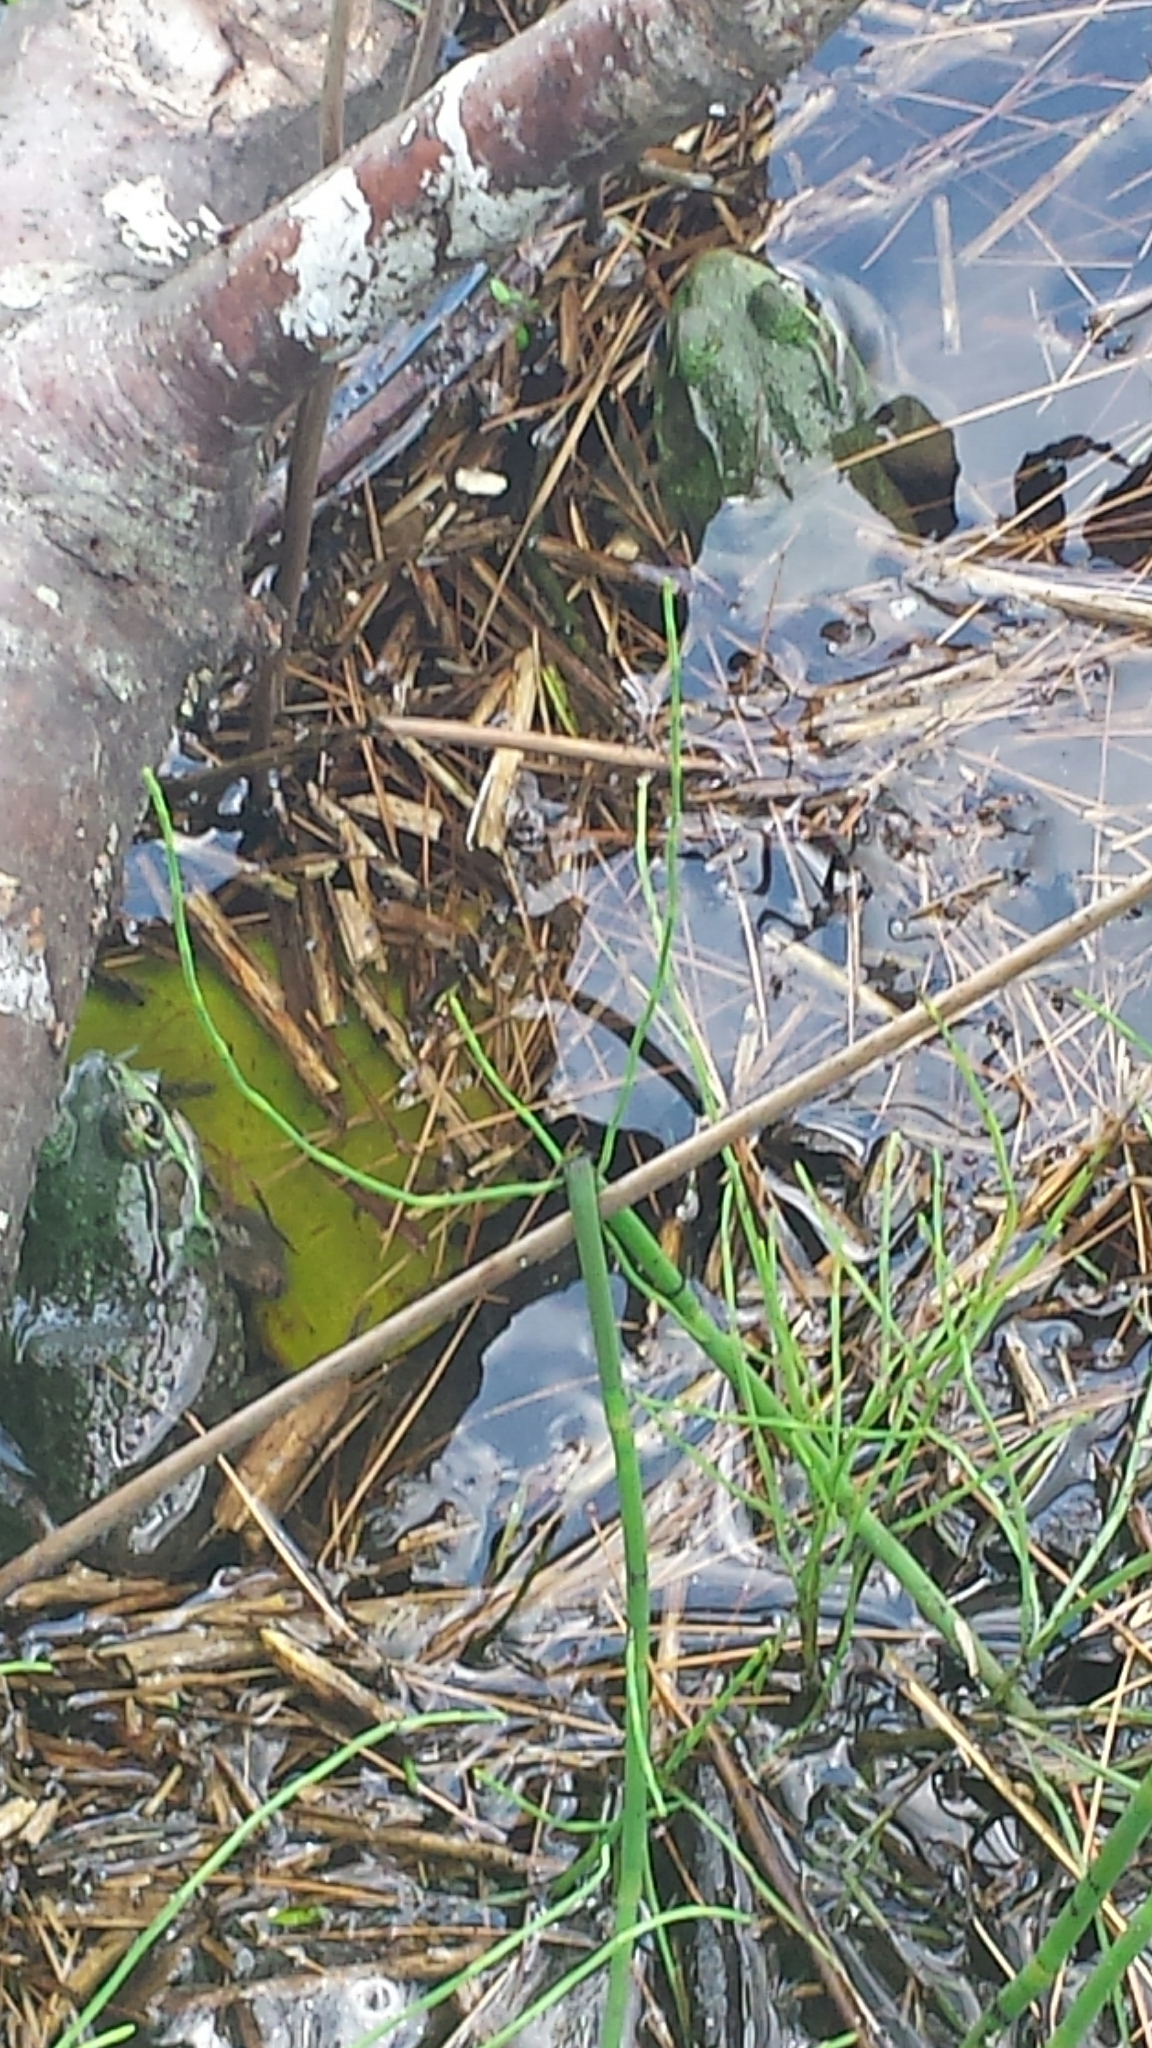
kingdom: Animalia
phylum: Chordata
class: Amphibia
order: Anura
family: Ranidae
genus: Lithobates
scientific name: Lithobates clamitans
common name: Green frog
